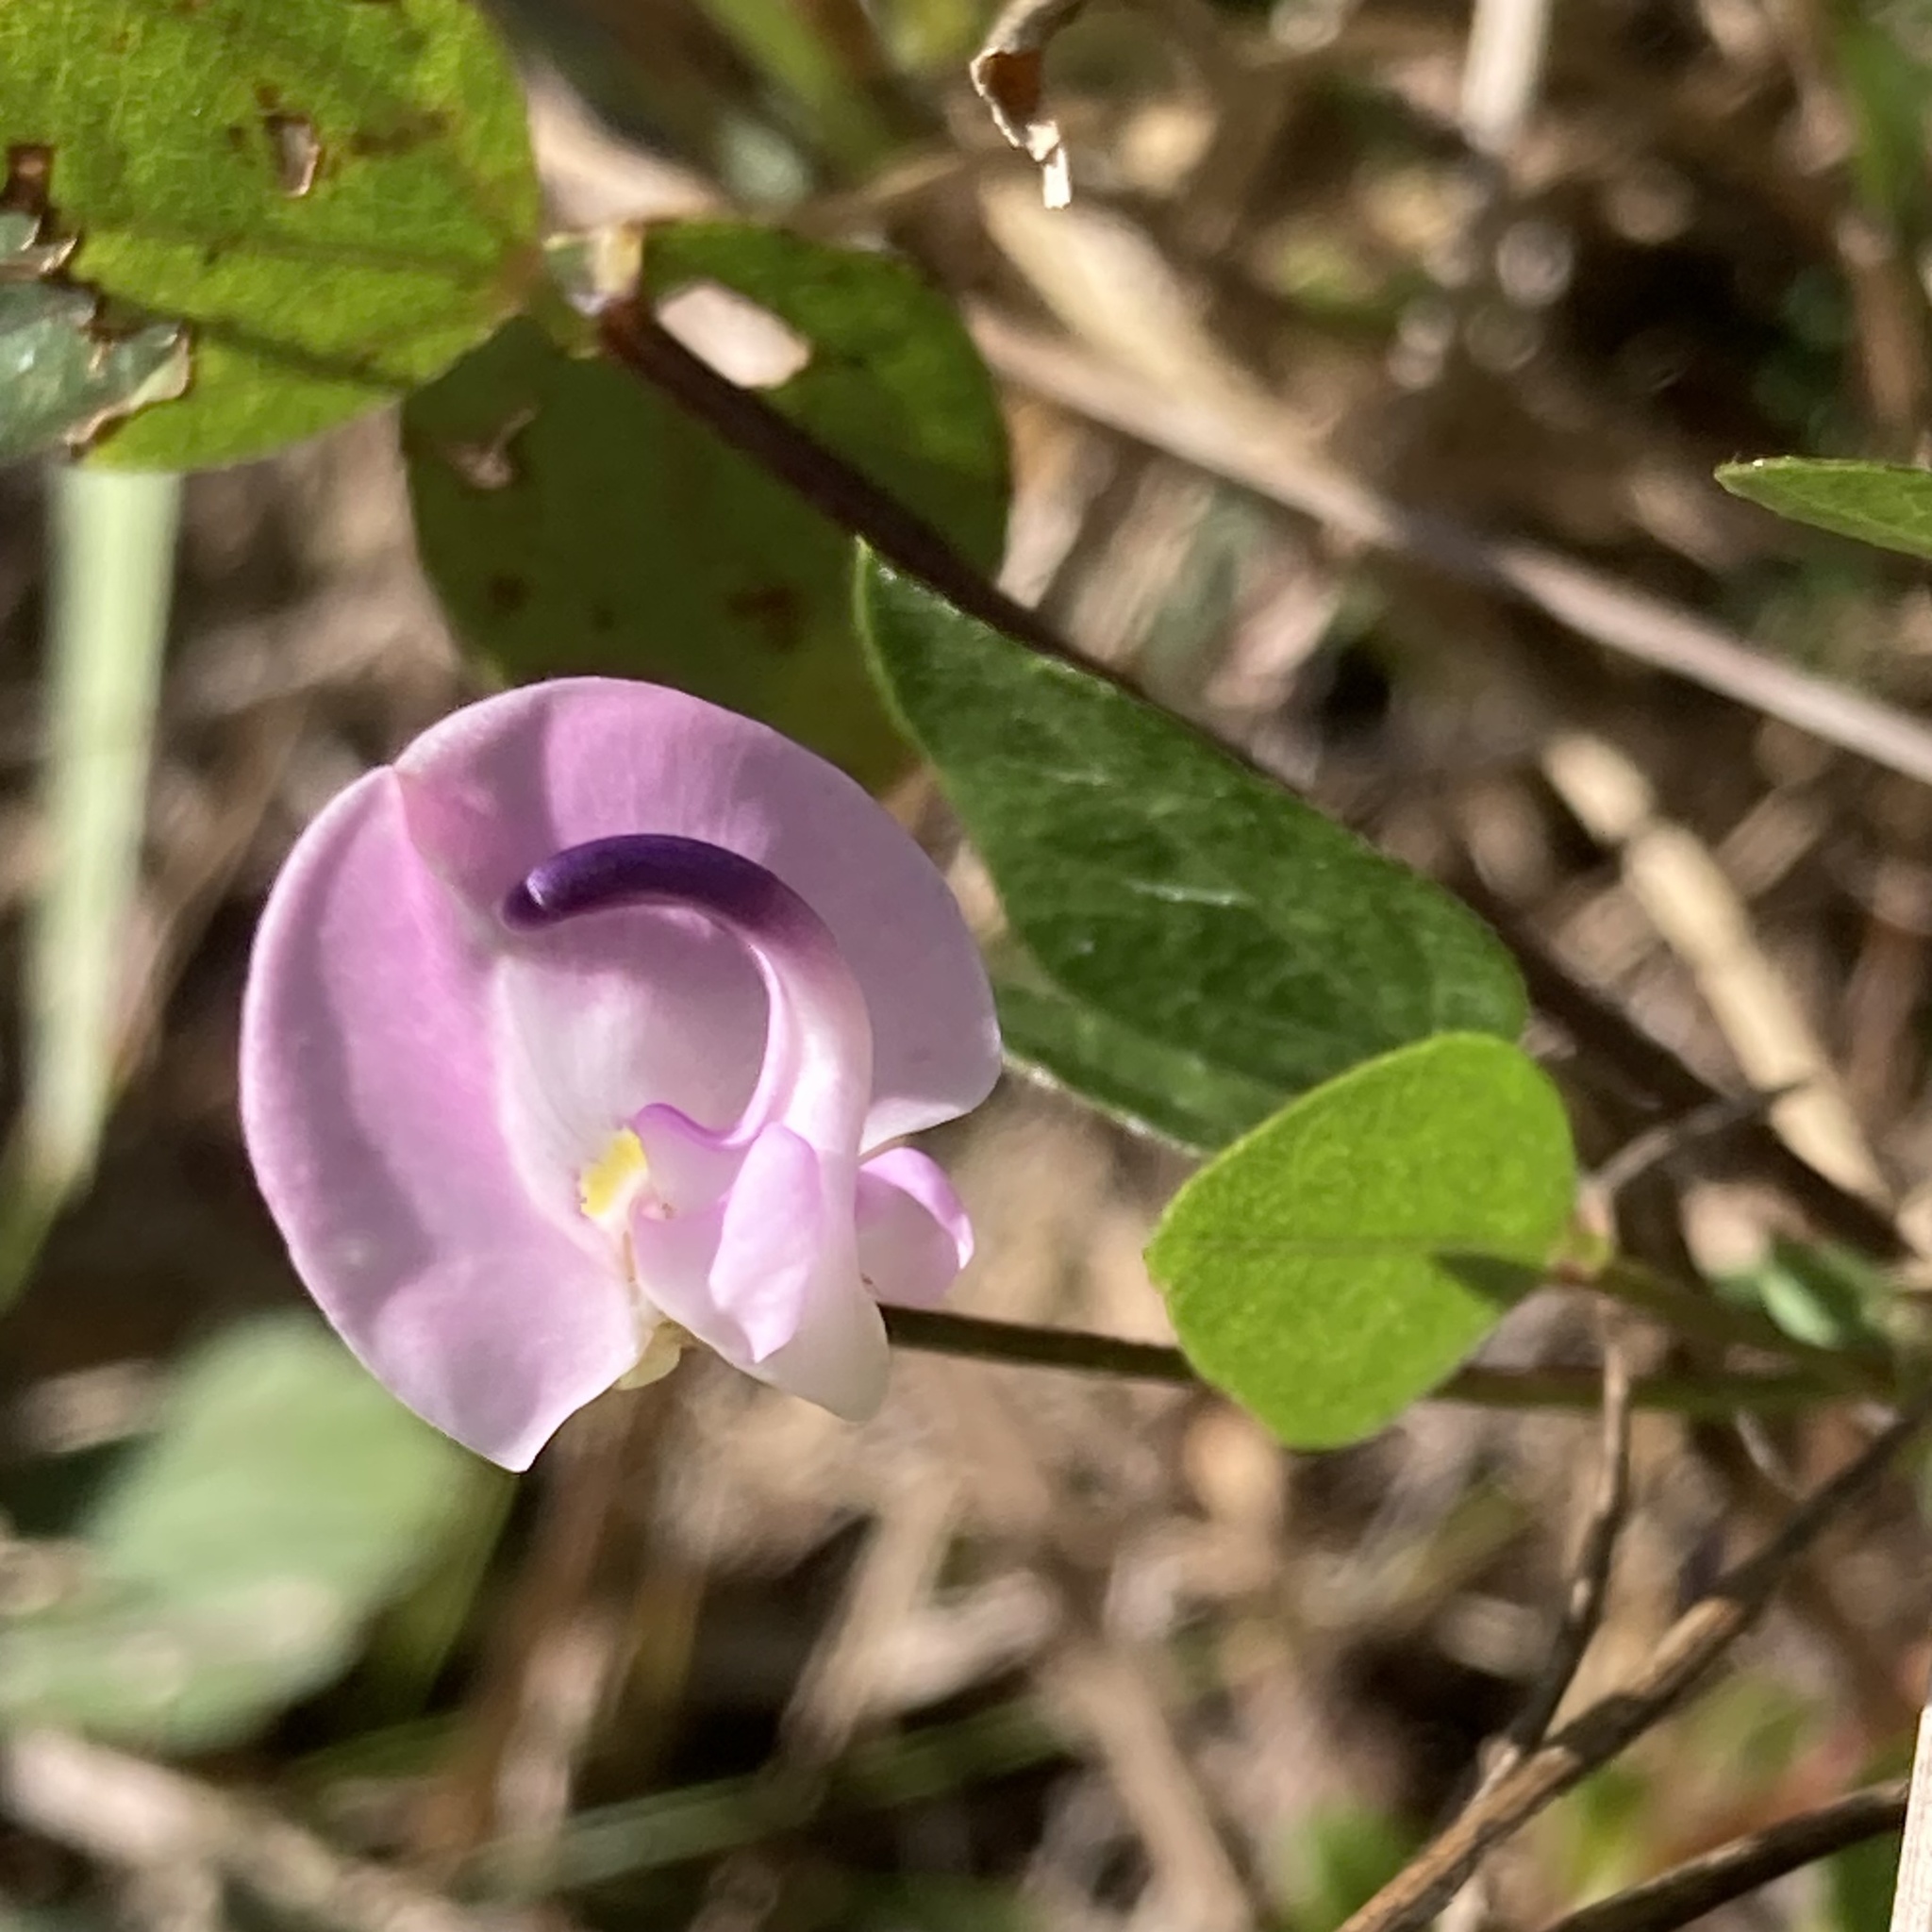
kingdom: Plantae
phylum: Tracheophyta
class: Magnoliopsida
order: Fabales
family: Fabaceae
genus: Strophostyles
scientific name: Strophostyles helvola
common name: Trailing wild bean
